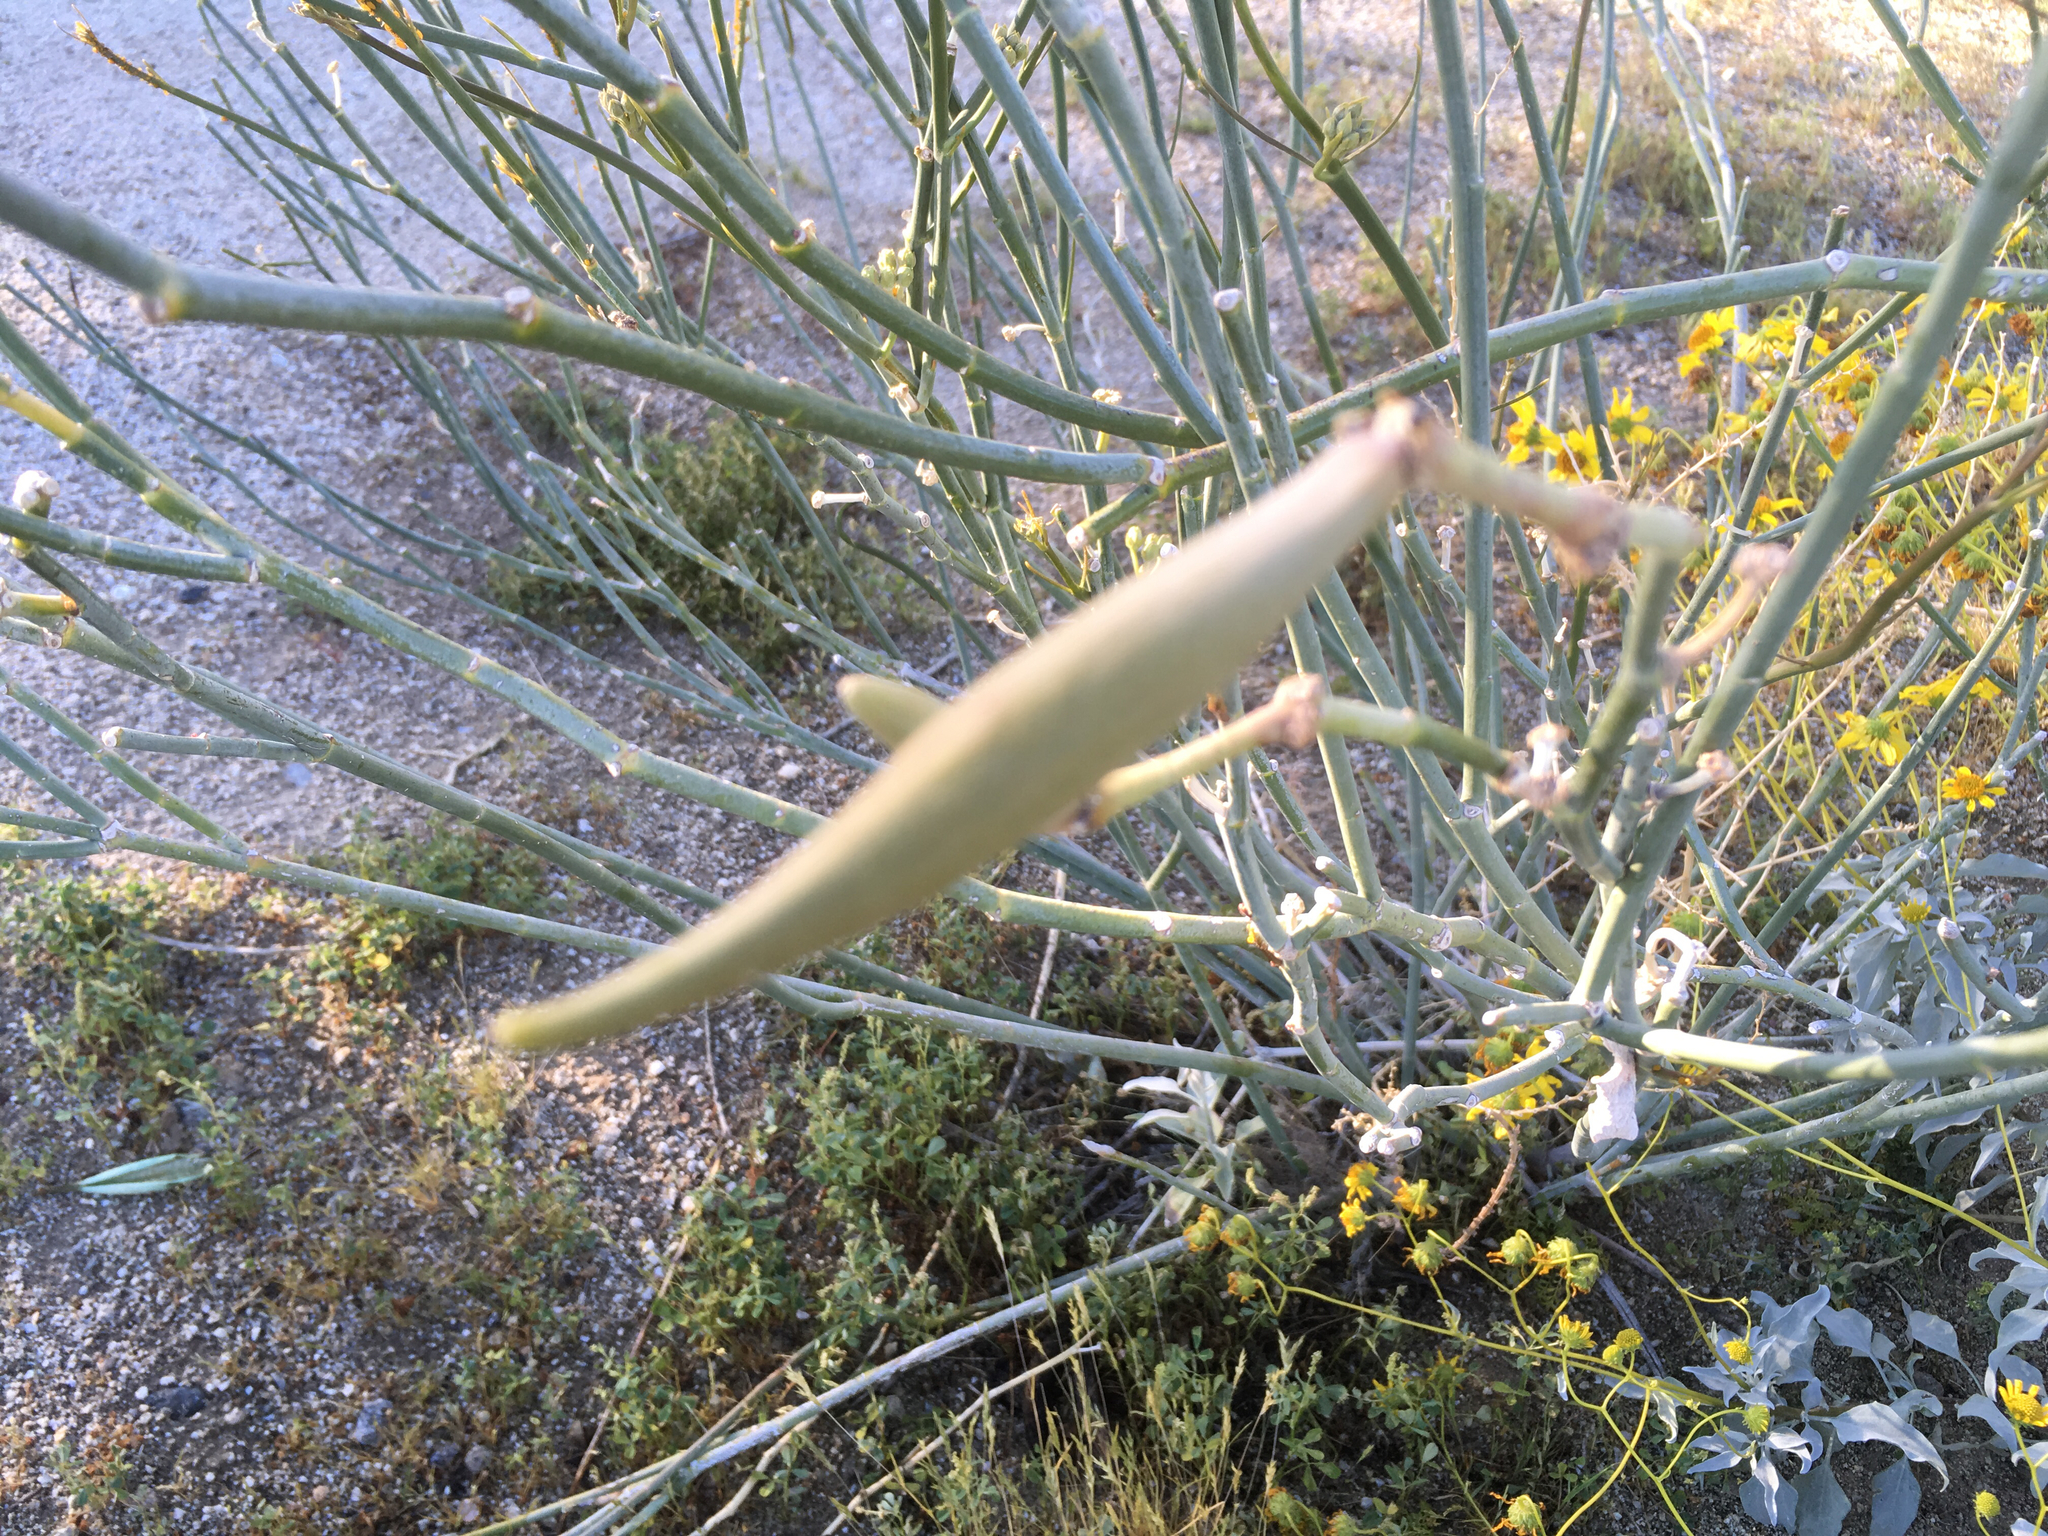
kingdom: Plantae
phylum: Tracheophyta
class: Magnoliopsida
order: Gentianales
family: Apocynaceae
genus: Asclepias
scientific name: Asclepias subulata
